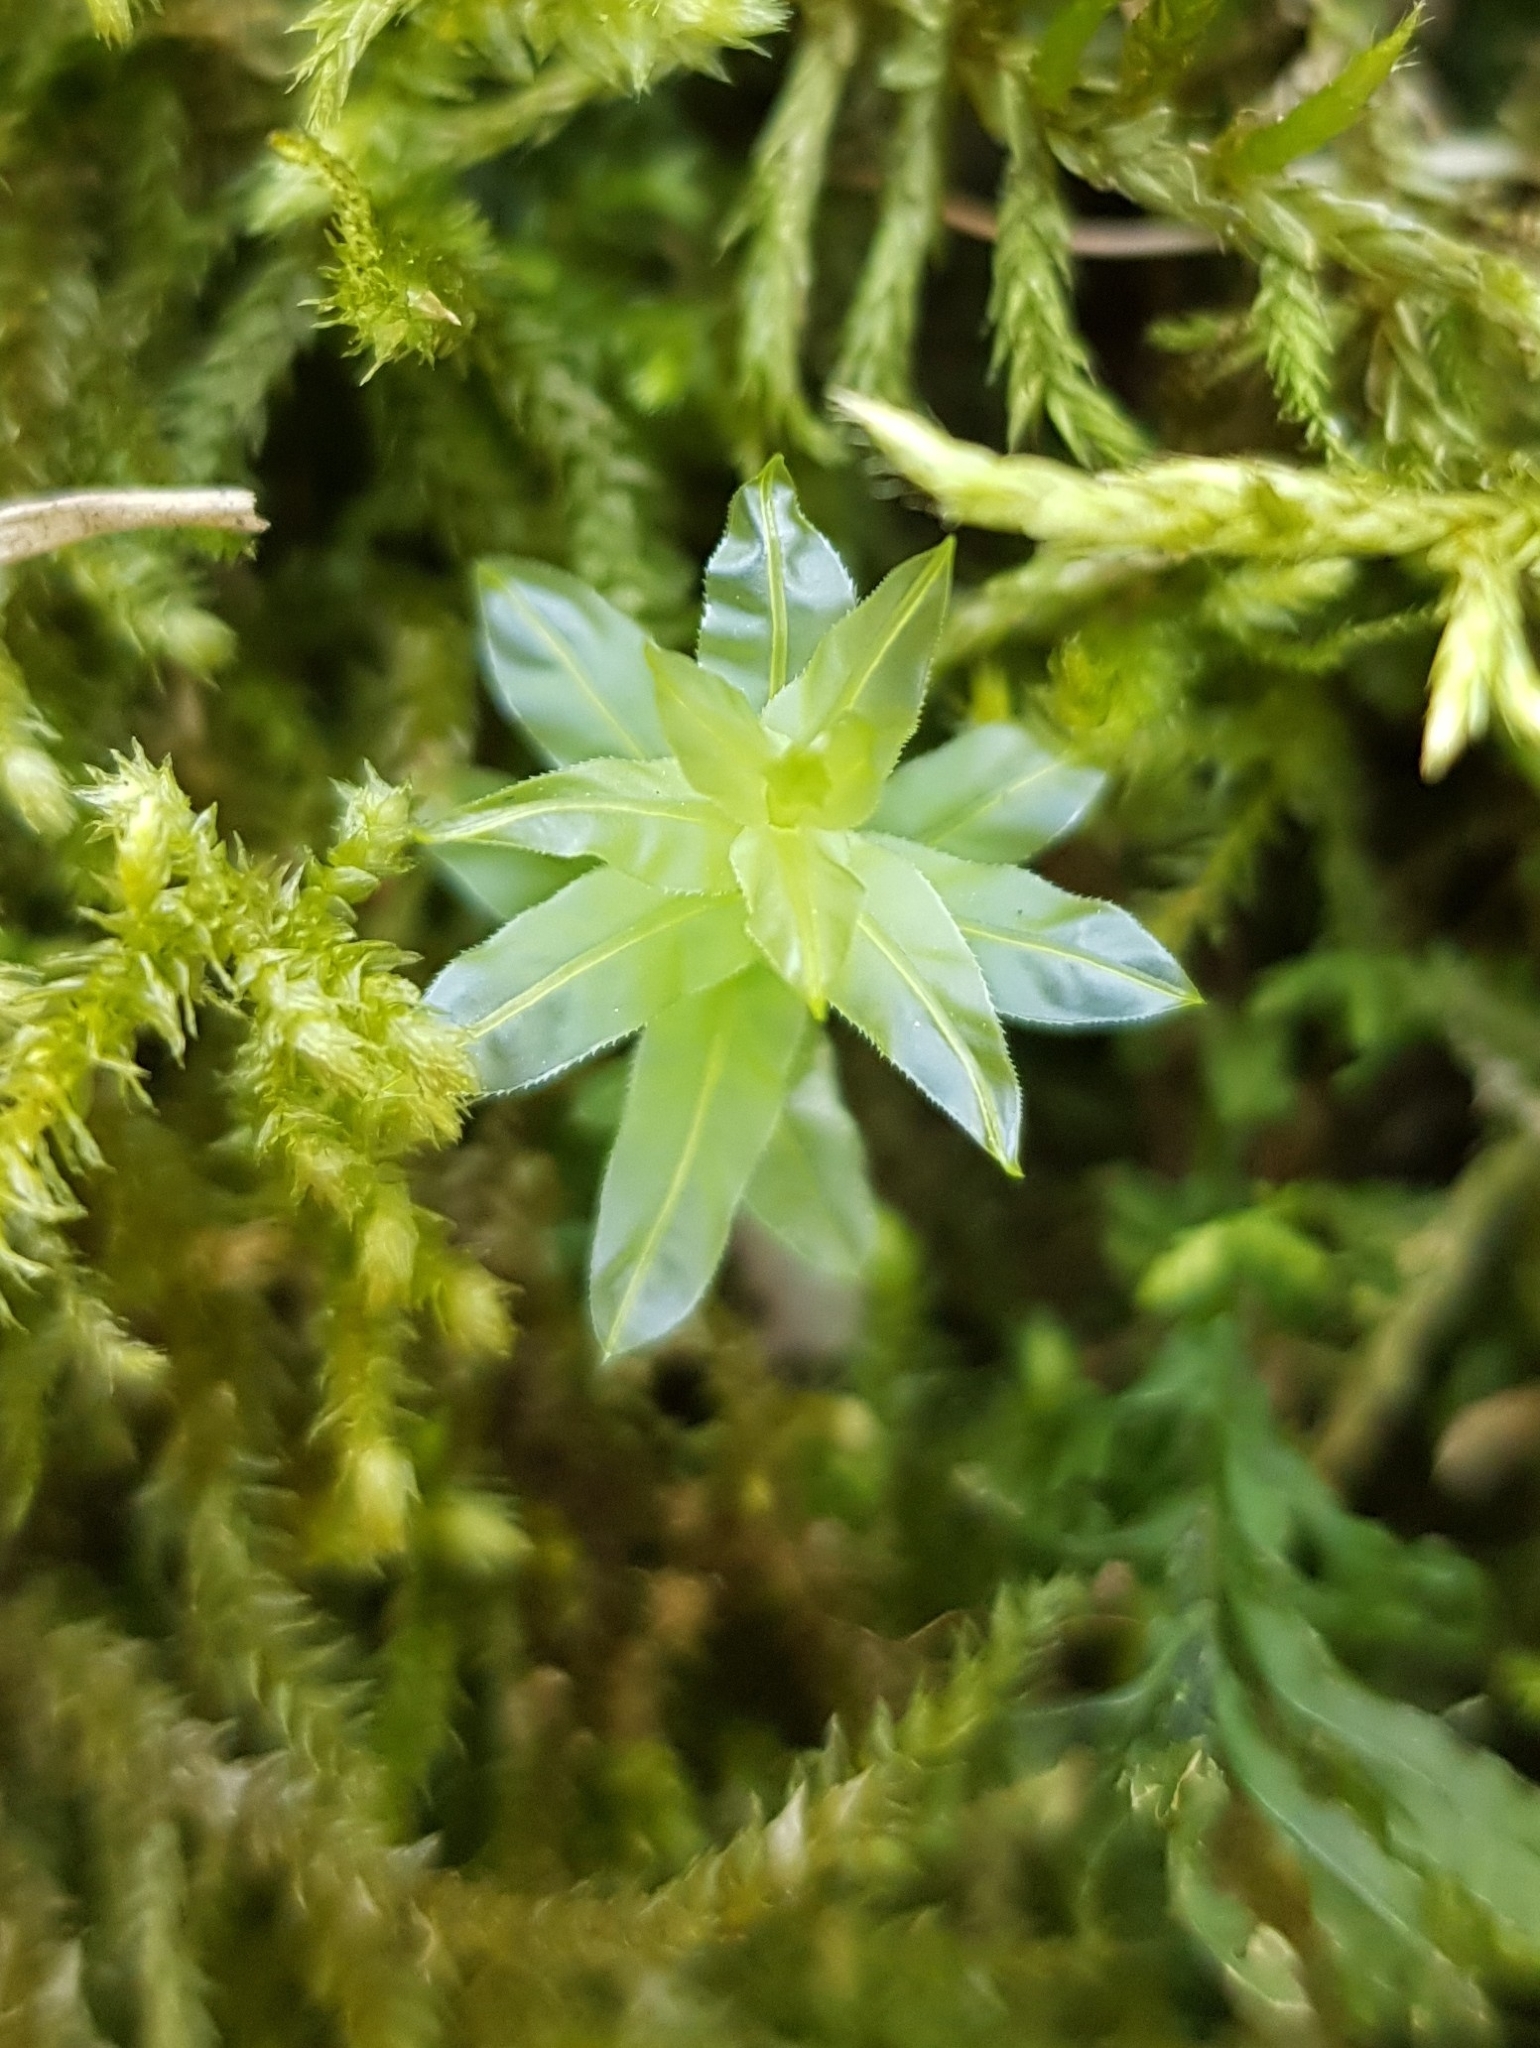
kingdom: Plantae
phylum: Bryophyta
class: Bryopsida
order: Bryales
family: Mniaceae
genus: Plagiomnium
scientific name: Plagiomnium undulatum
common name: Hart's-tongue thyme-moss
